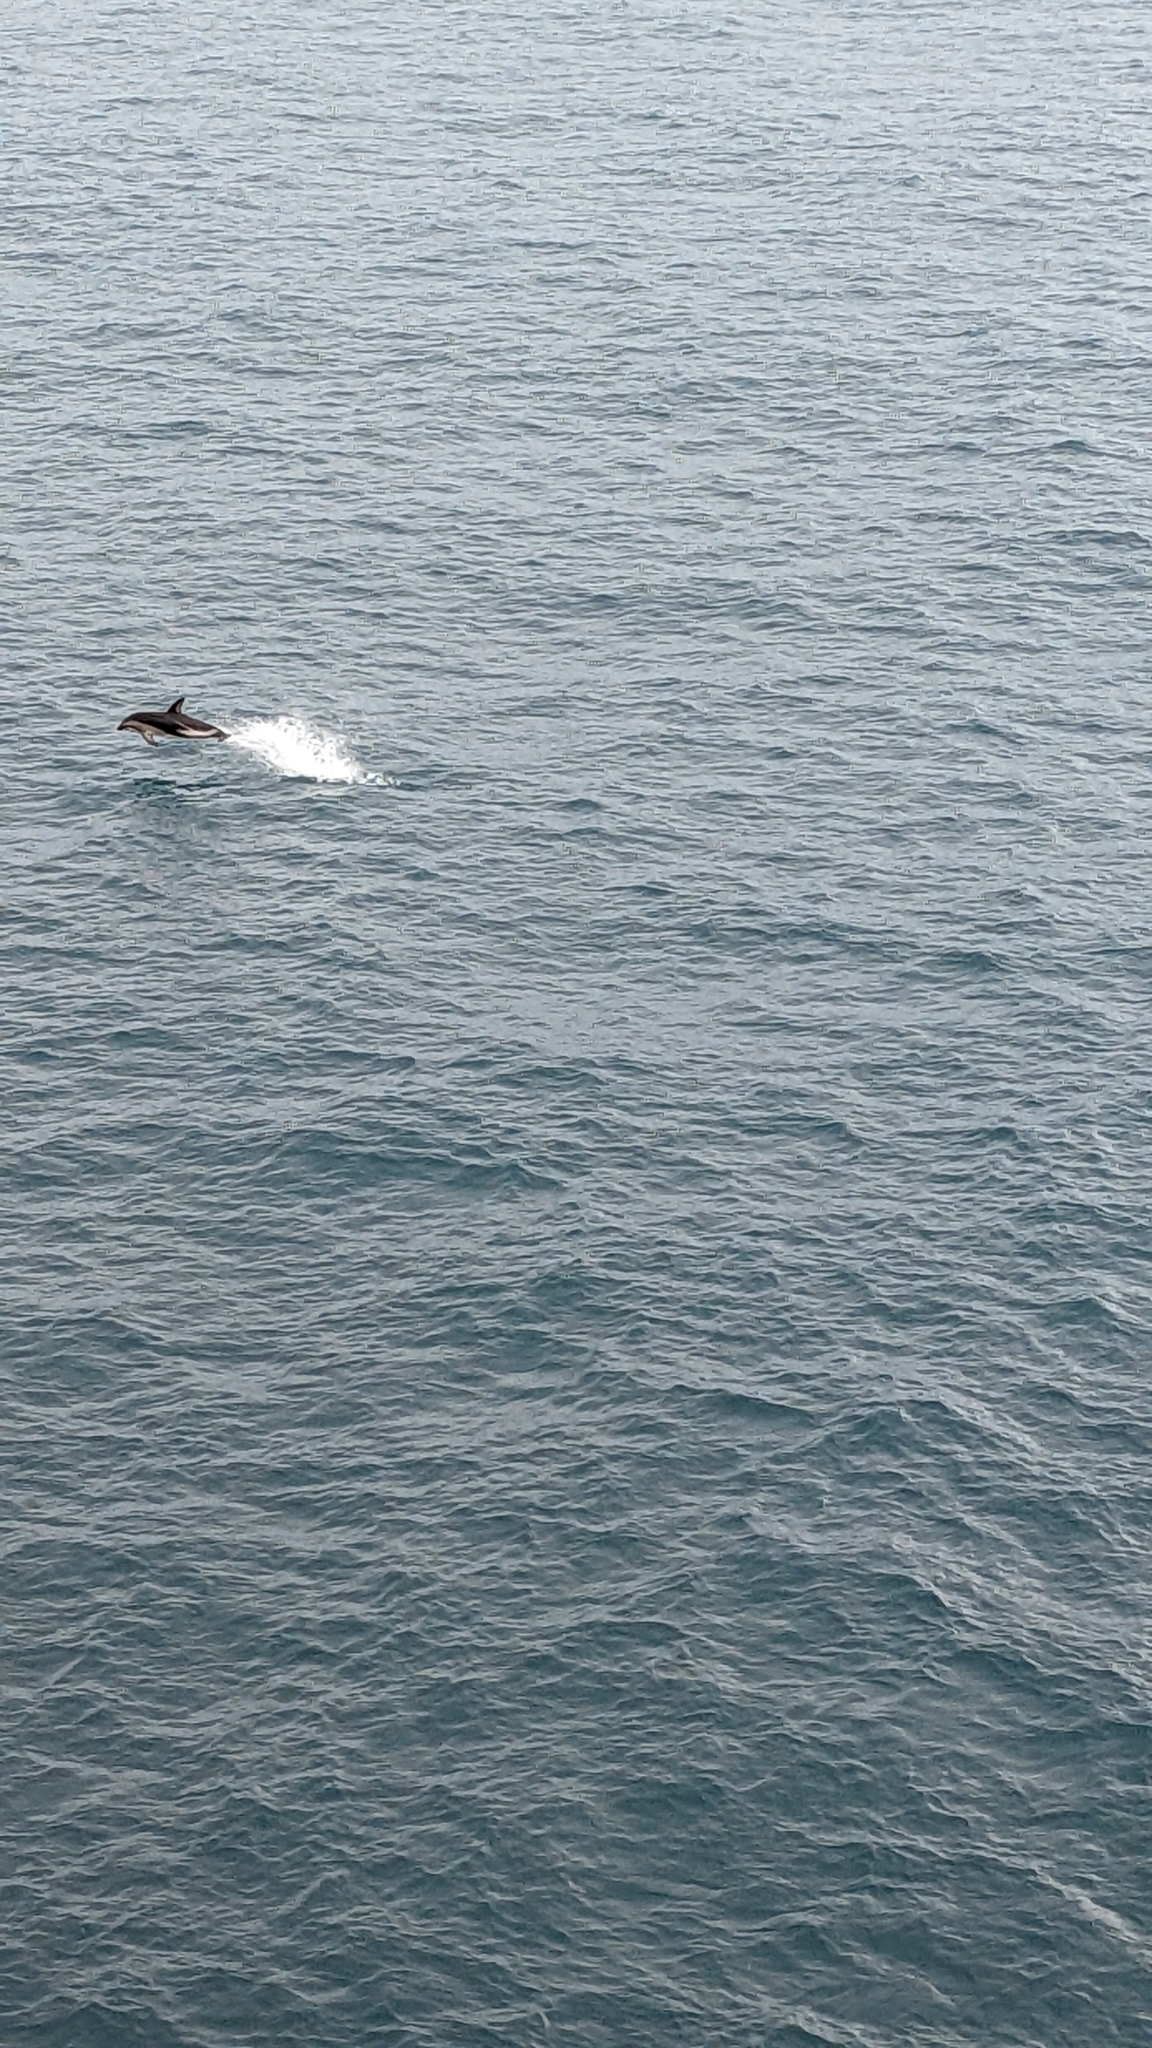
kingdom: Animalia
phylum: Chordata
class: Mammalia
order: Cetacea
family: Delphinidae
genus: Lagenorhynchus
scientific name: Lagenorhynchus obscurus
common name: Dusky dolphin
